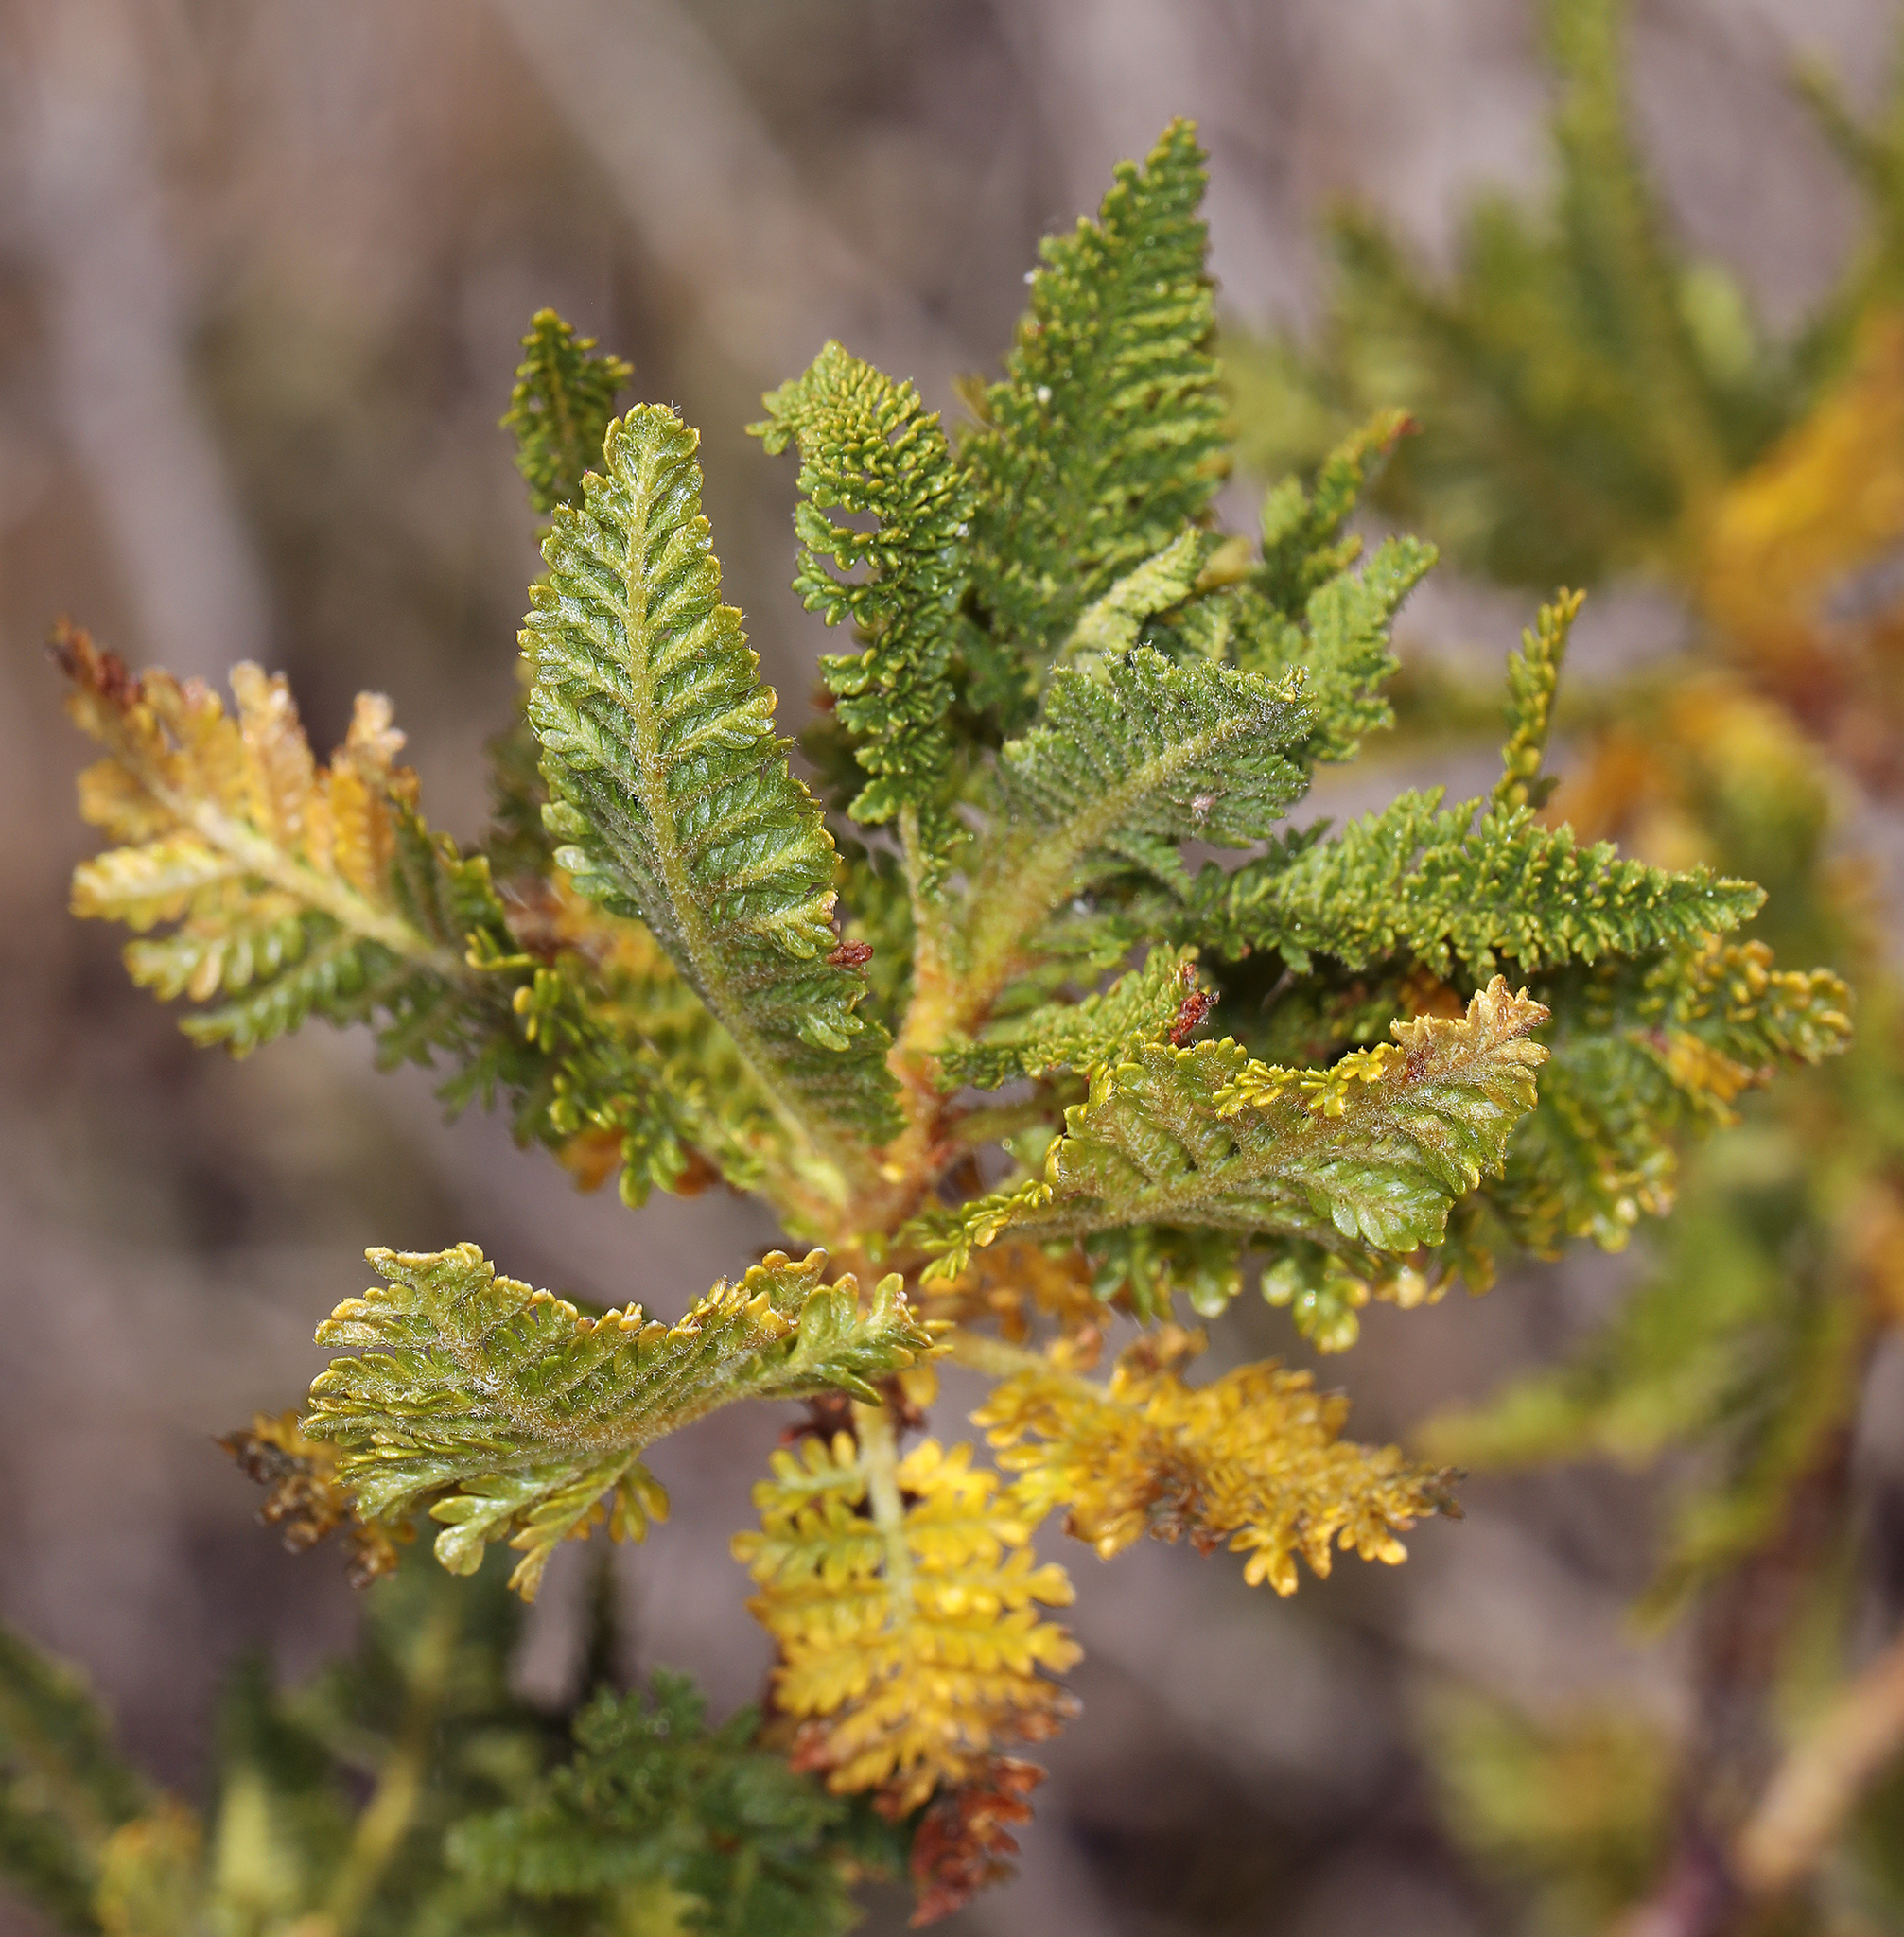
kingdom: Plantae
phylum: Tracheophyta
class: Magnoliopsida
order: Rosales
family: Rosaceae
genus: Chamaebatiaria
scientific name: Chamaebatiaria millefolium
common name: Fernbush
